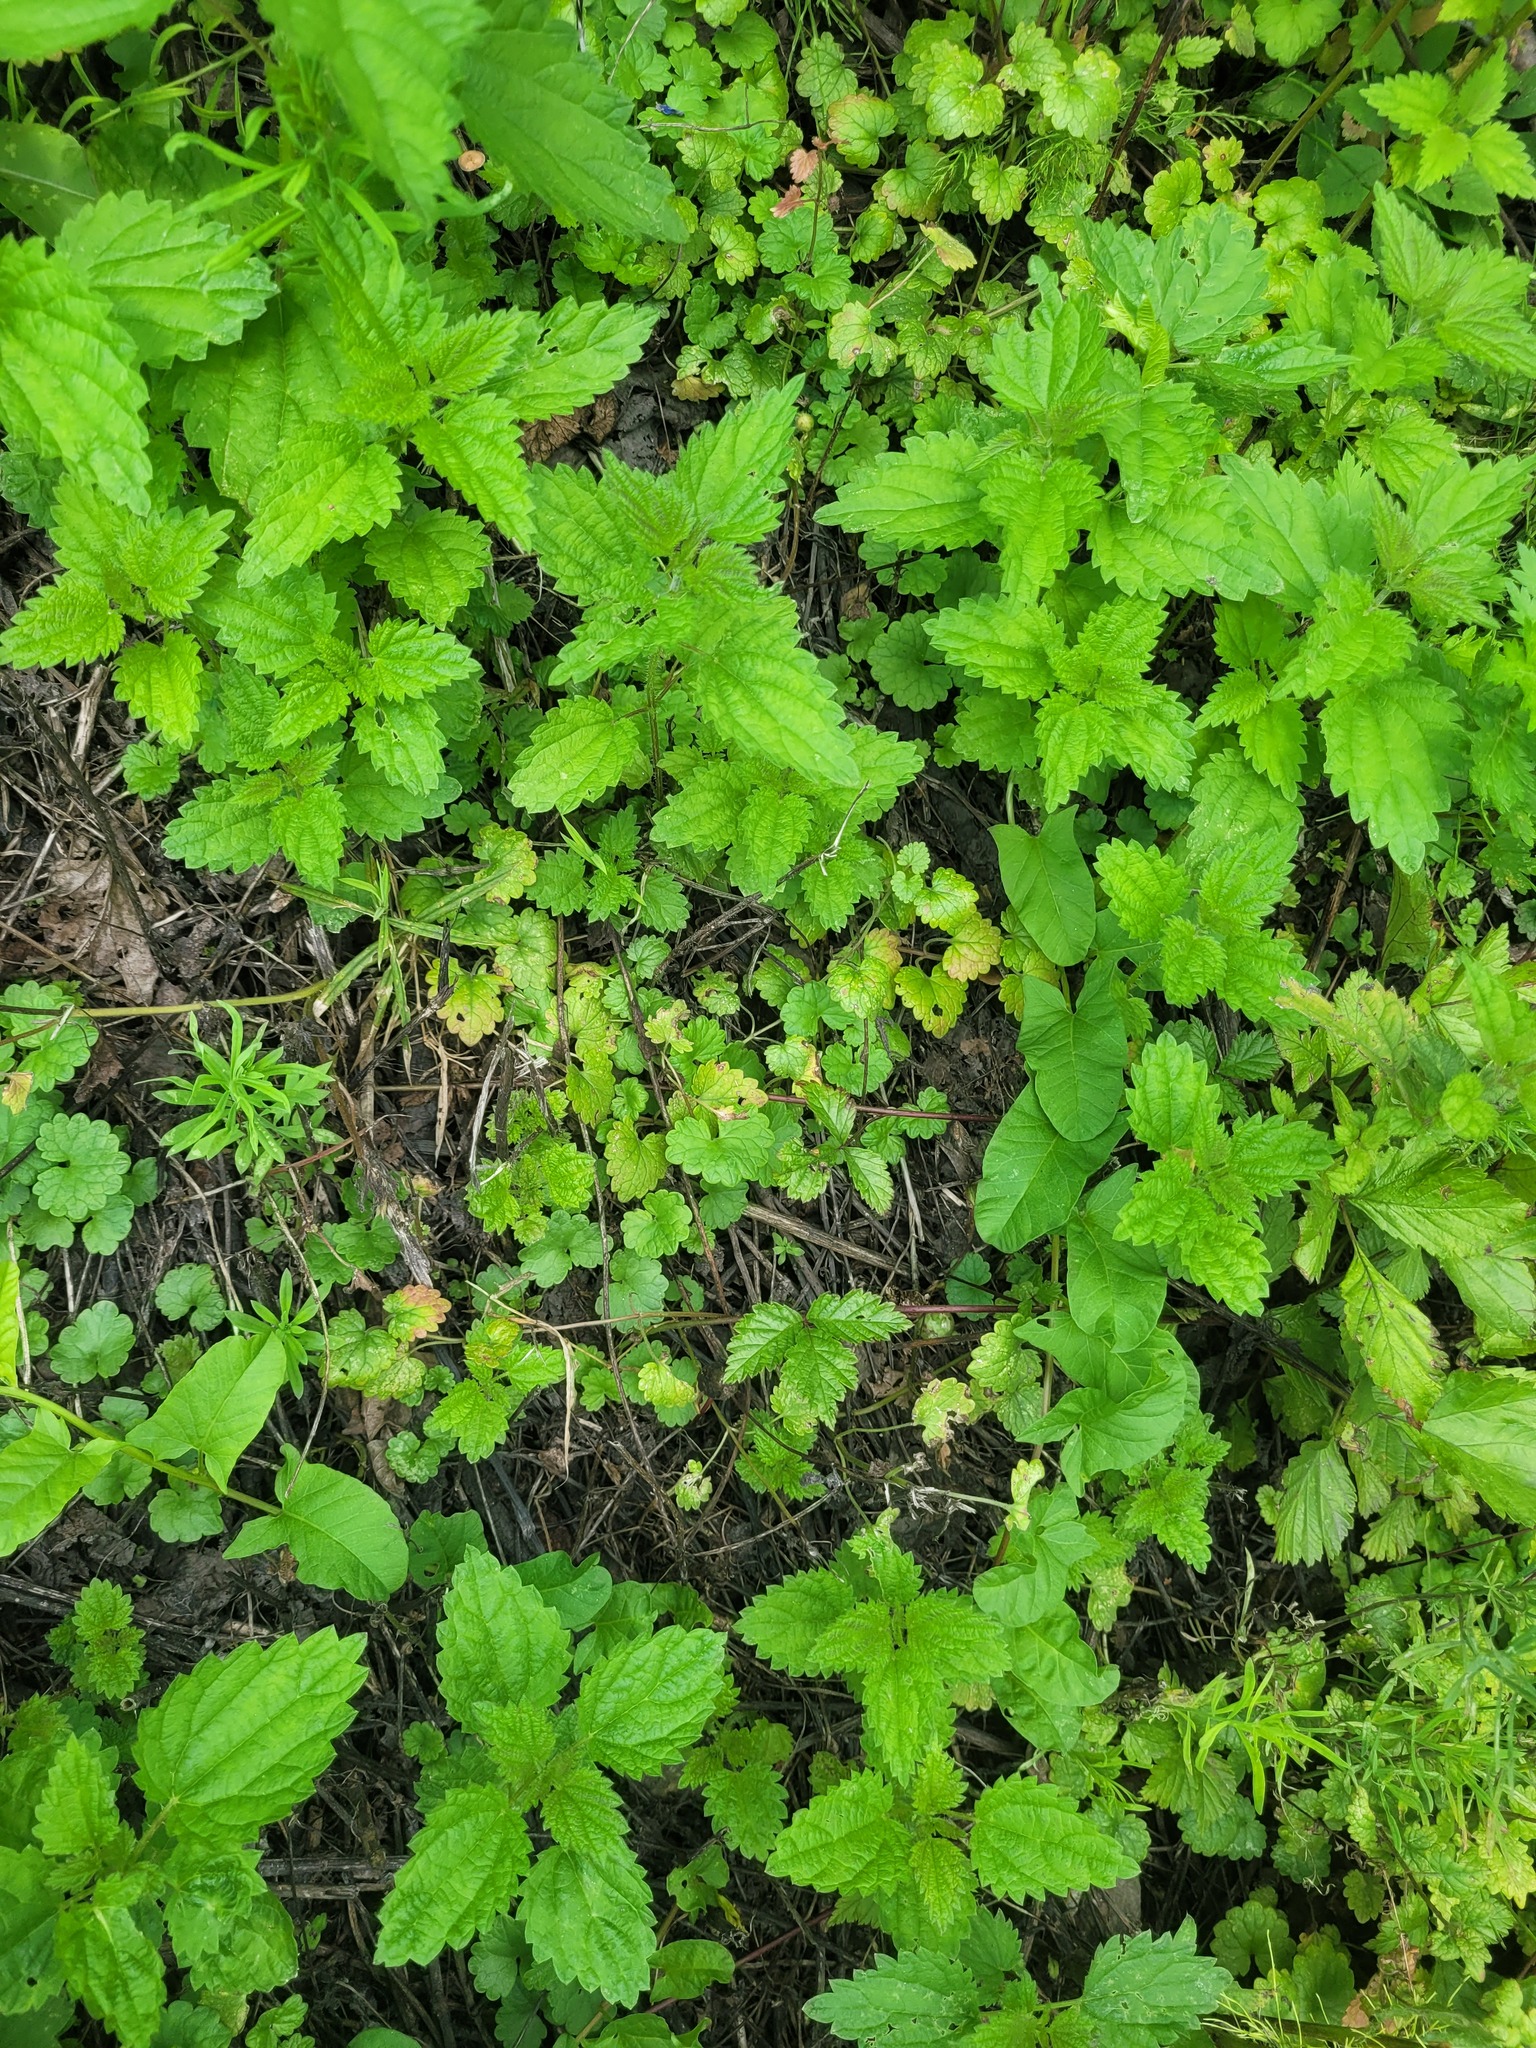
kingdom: Plantae
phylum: Tracheophyta
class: Magnoliopsida
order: Lamiales
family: Lamiaceae
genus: Glechoma
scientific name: Glechoma hederacea
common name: Ground ivy
